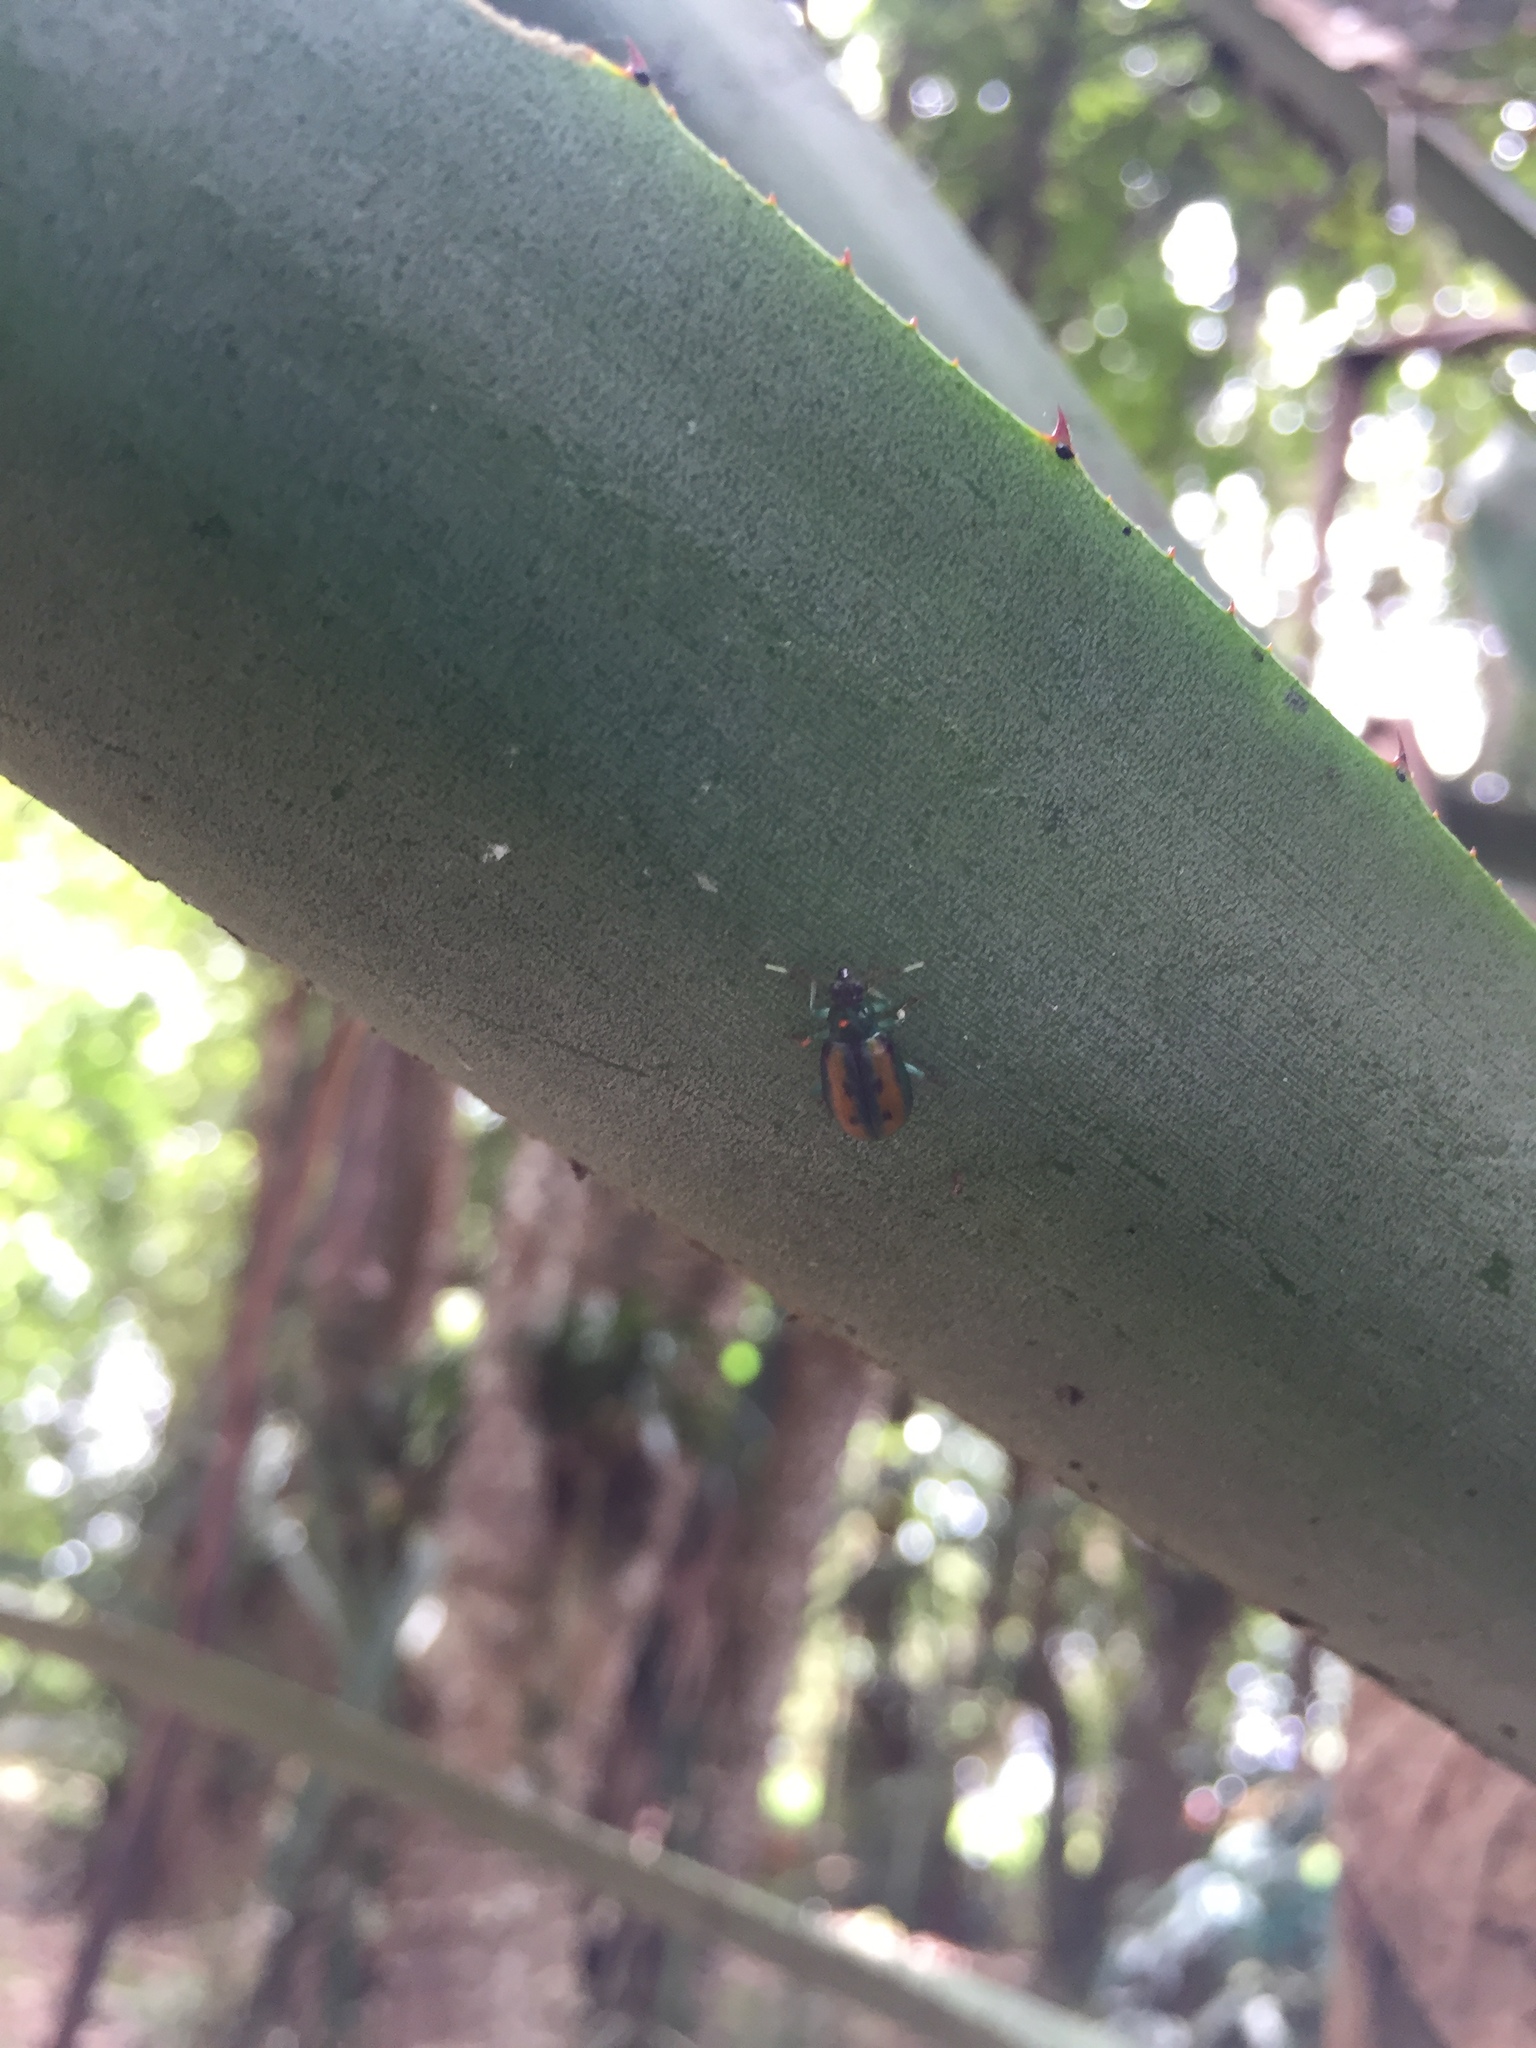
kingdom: Animalia
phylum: Arthropoda
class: Insecta
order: Coleoptera
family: Chrysomelidae
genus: Diabrotica
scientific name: Diabrotica
